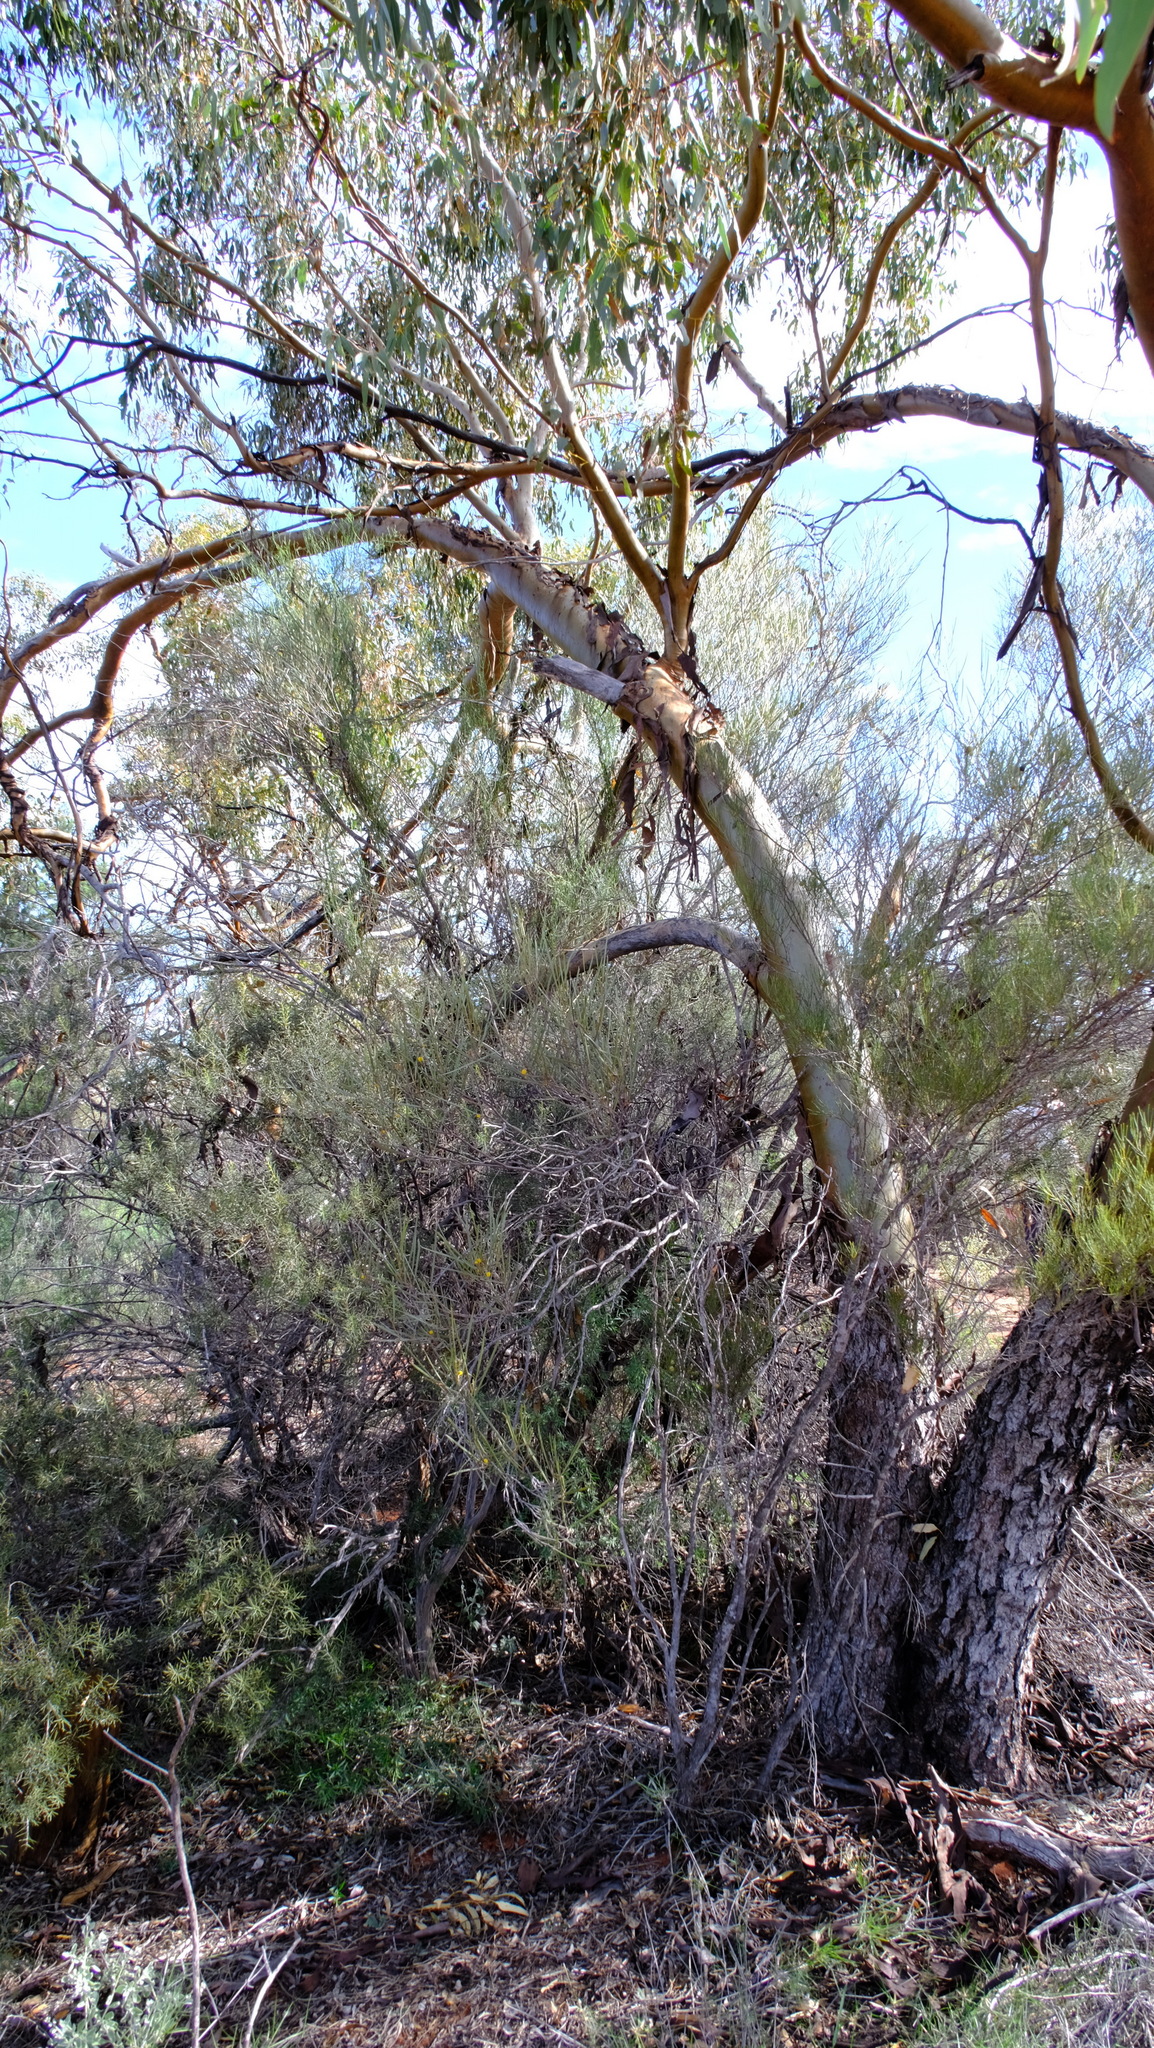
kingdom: Plantae
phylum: Tracheophyta
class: Magnoliopsida
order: Myrtales
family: Myrtaceae
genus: Eucalyptus
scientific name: Eucalyptus loxophleba
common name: York gum
